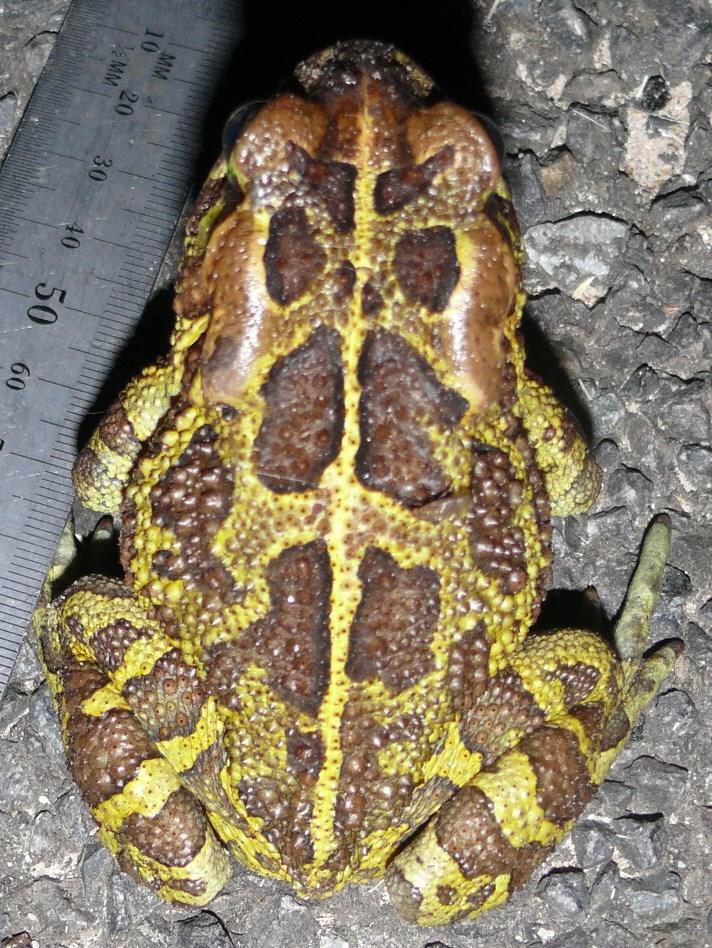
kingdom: Animalia
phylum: Chordata
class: Amphibia
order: Anura
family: Bufonidae
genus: Sclerophrys
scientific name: Sclerophrys pantherina
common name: Panther toad
